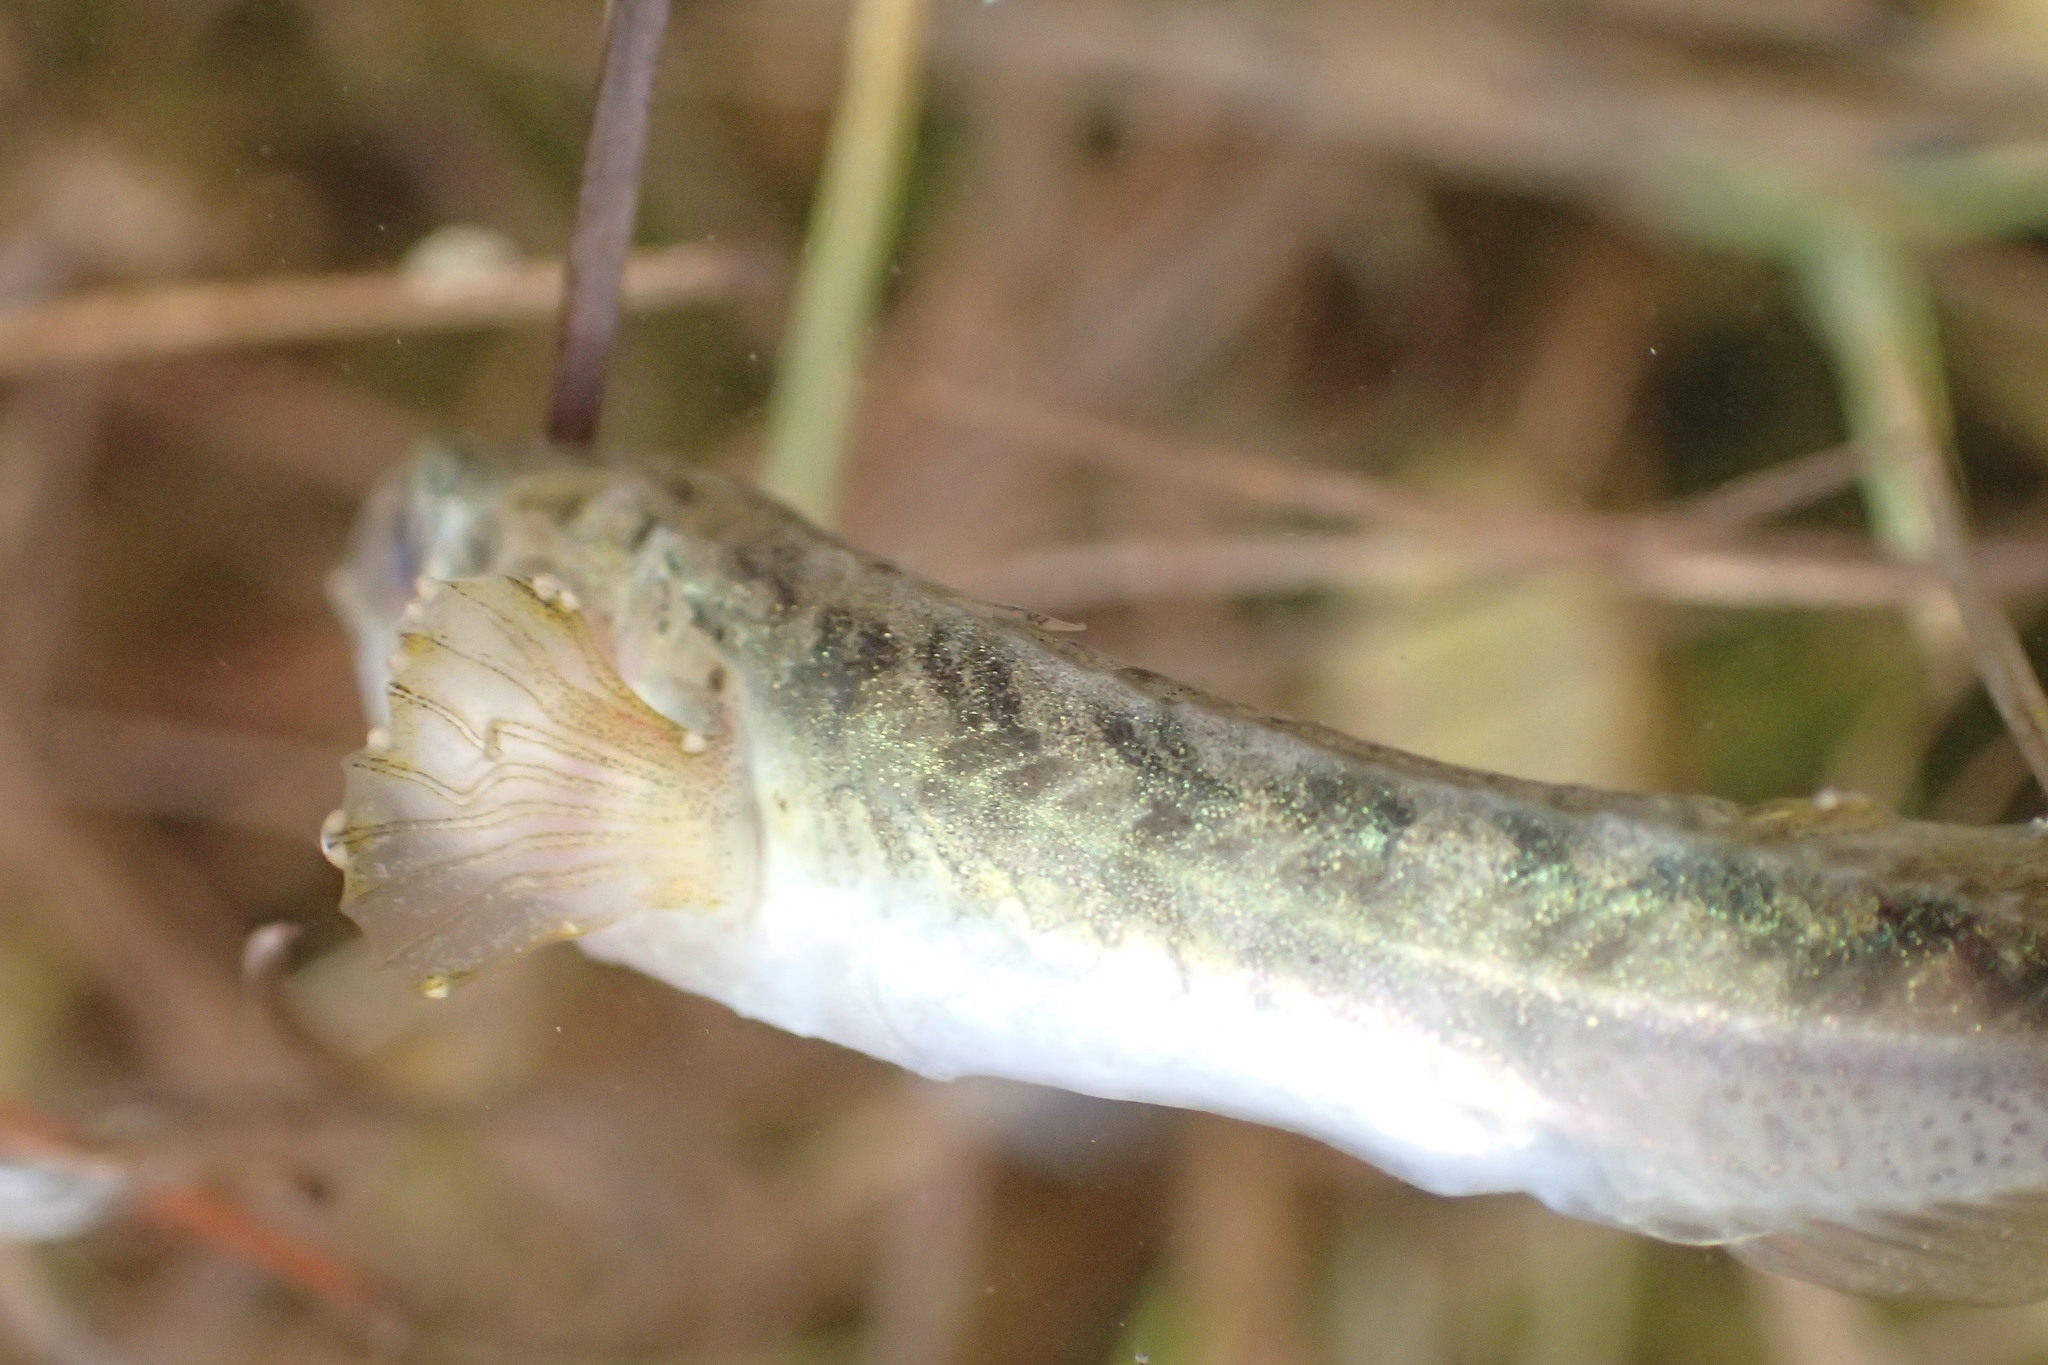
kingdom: Animalia
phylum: Chordata
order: Gasterosteiformes
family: Gasterosteidae
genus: Pungitius
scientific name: Pungitius pungitius
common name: Nine-spined stickleback
